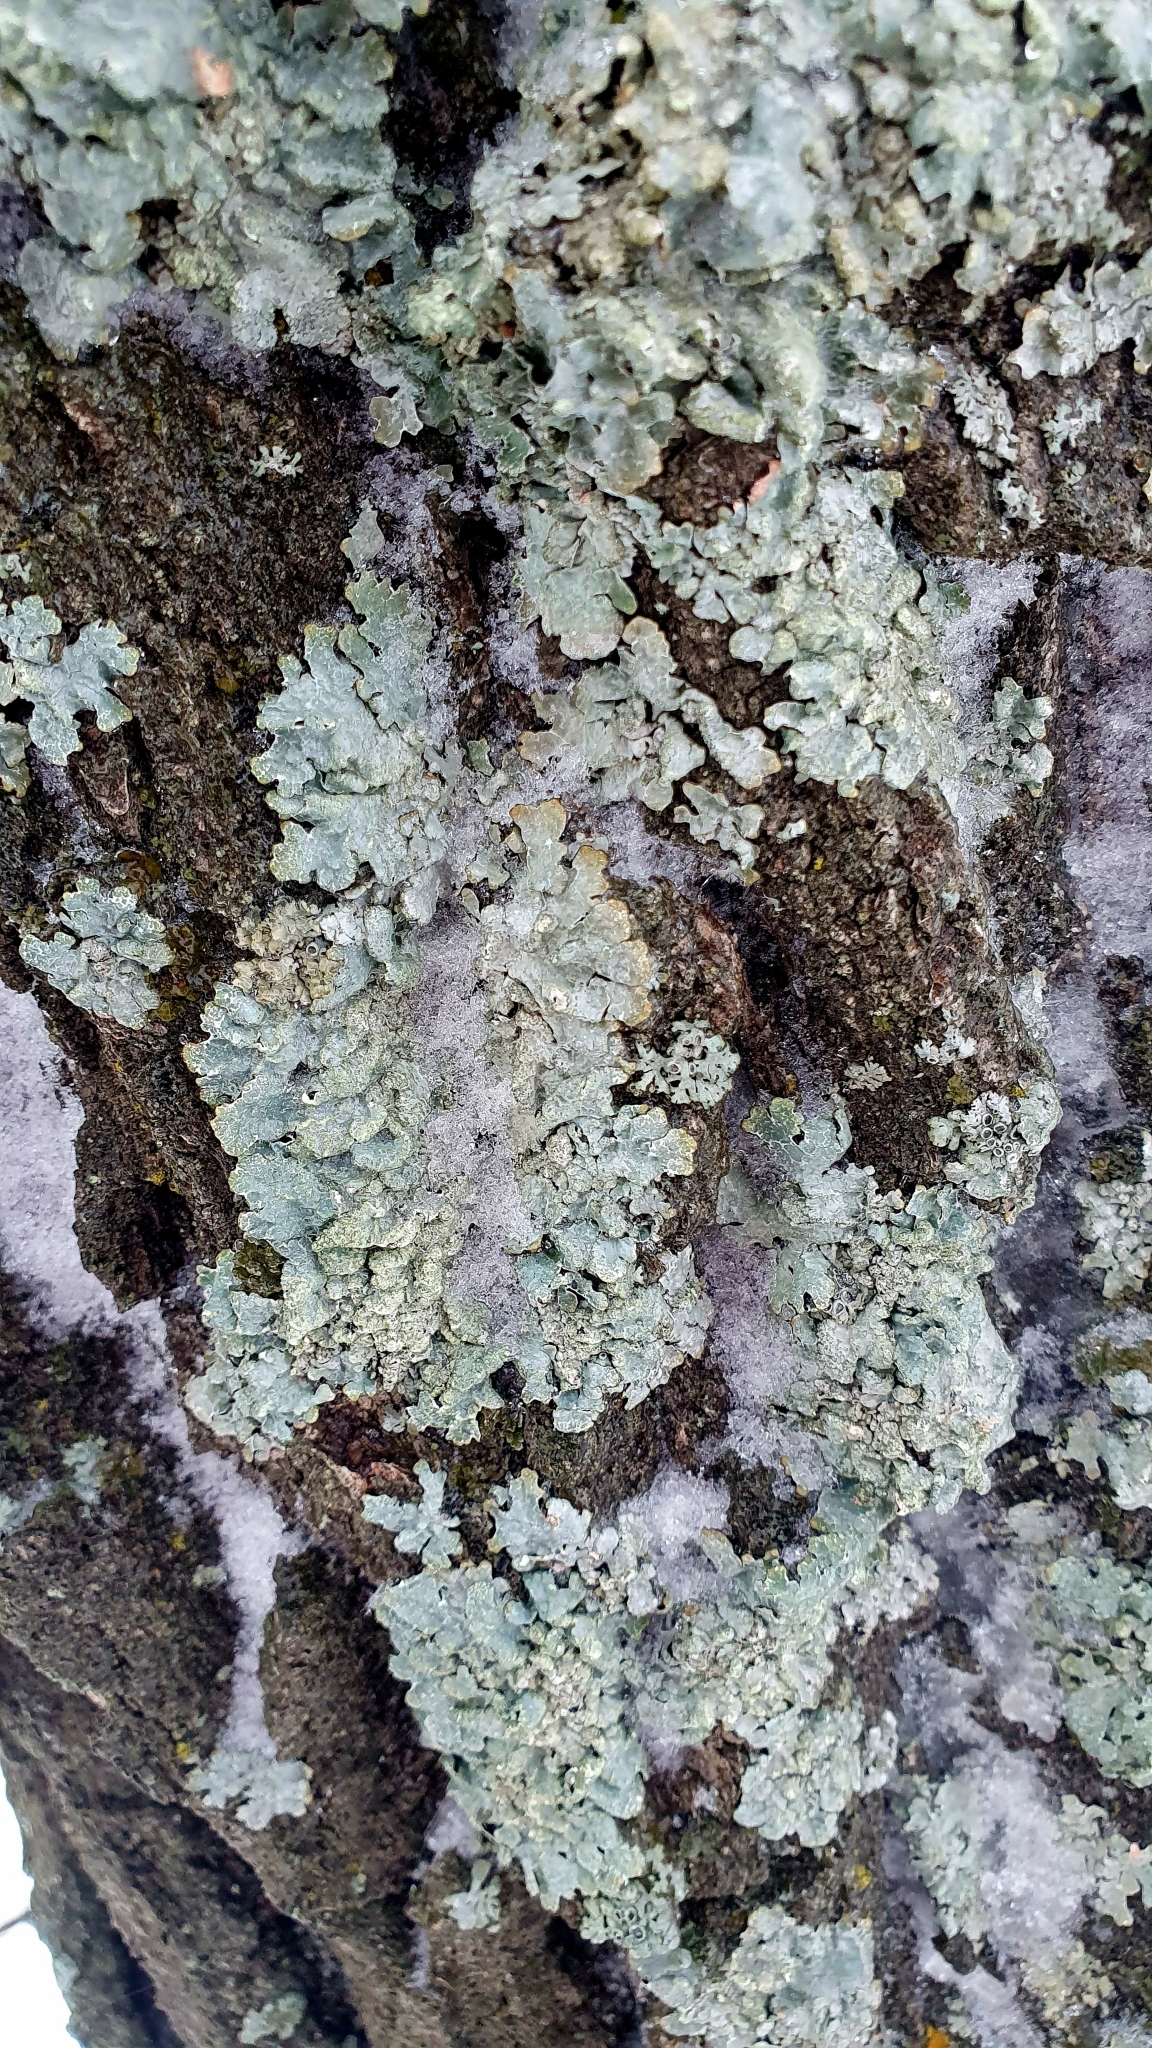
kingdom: Fungi
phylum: Ascomycota
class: Lecanoromycetes
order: Lecanorales
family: Parmeliaceae
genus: Parmelia
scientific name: Parmelia sulcata
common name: Netted shield lichen
